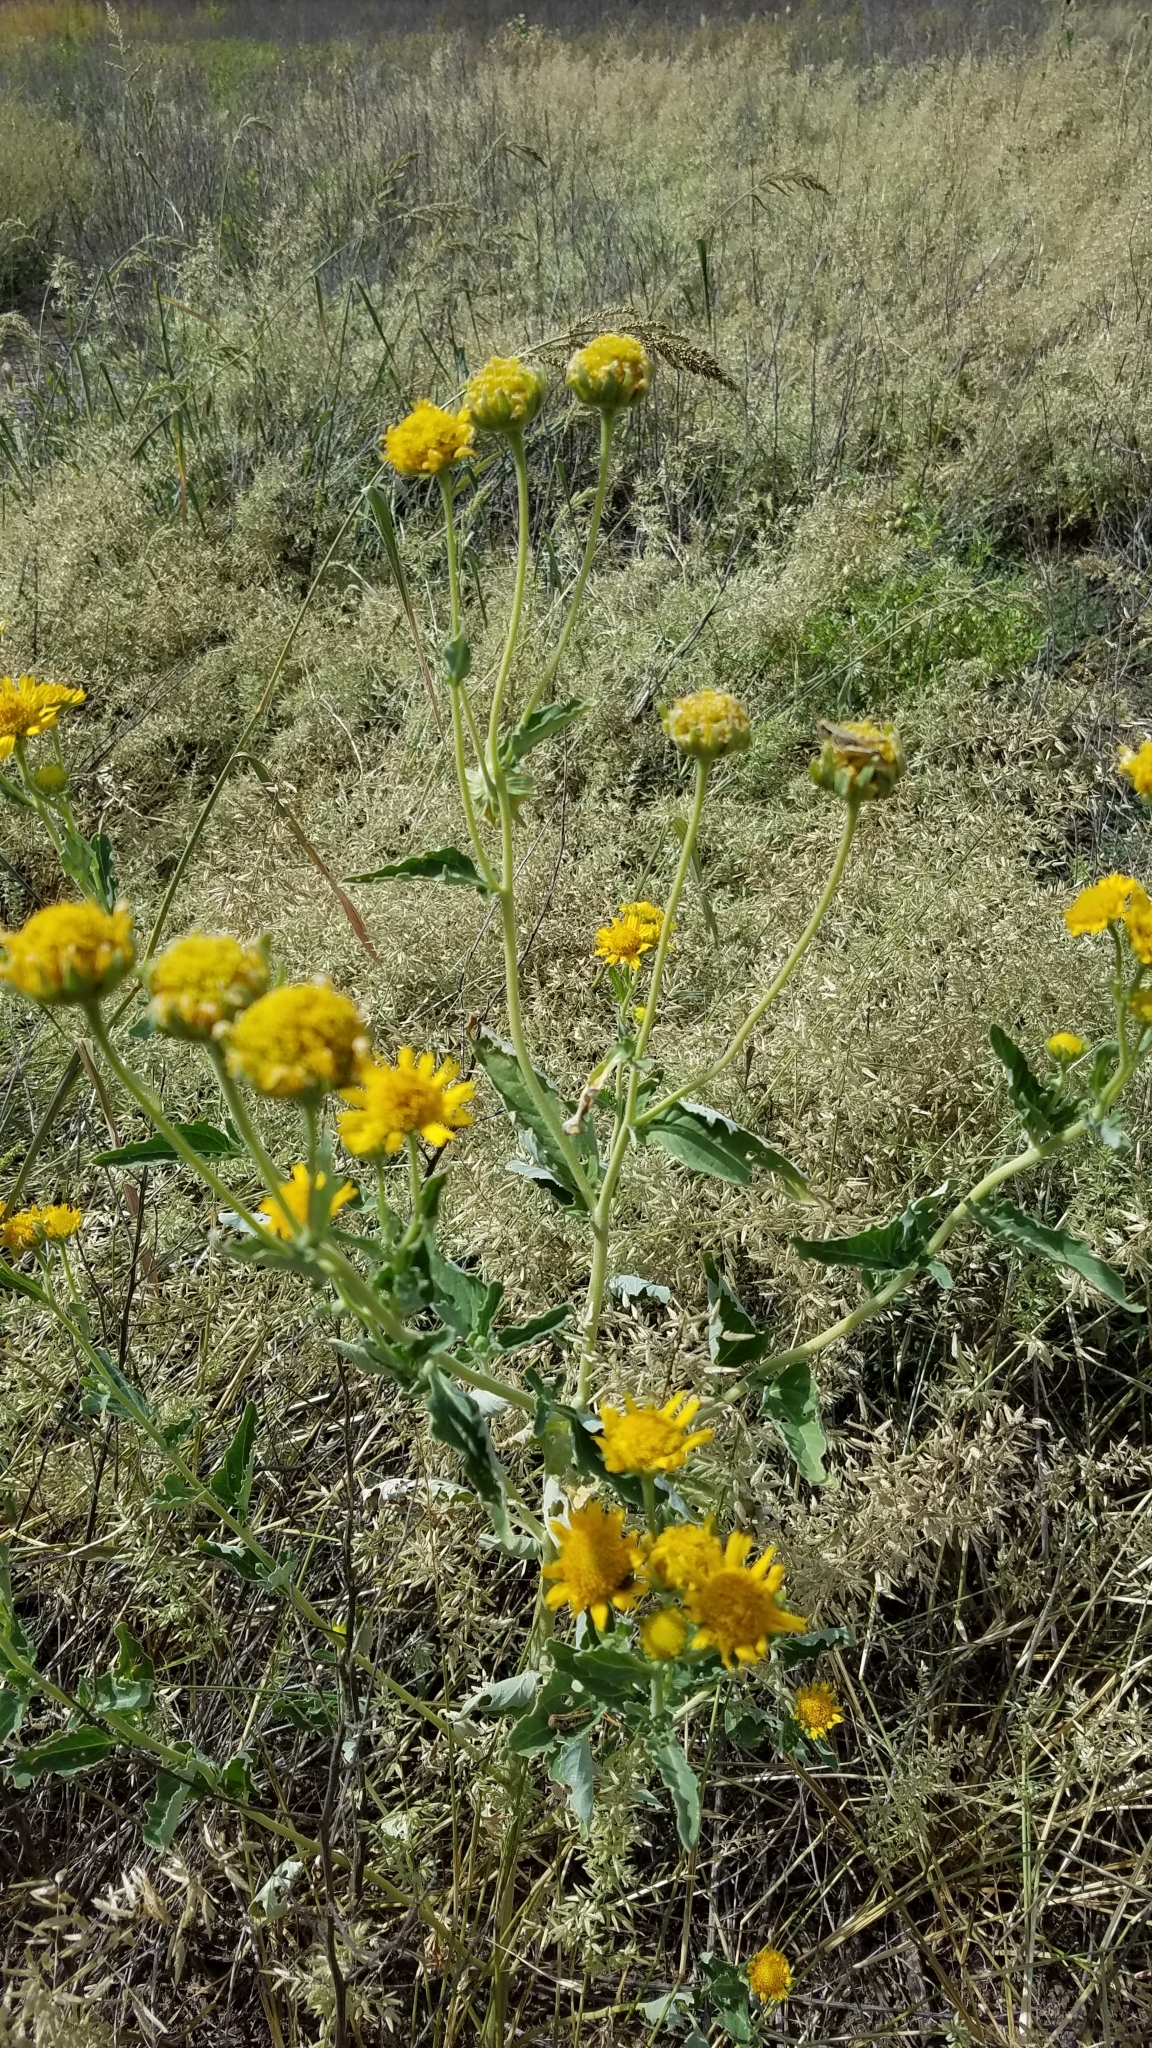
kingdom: Plantae
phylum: Tracheophyta
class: Magnoliopsida
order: Asterales
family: Asteraceae
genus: Verbesina
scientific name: Verbesina encelioides
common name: Golden crownbeard
